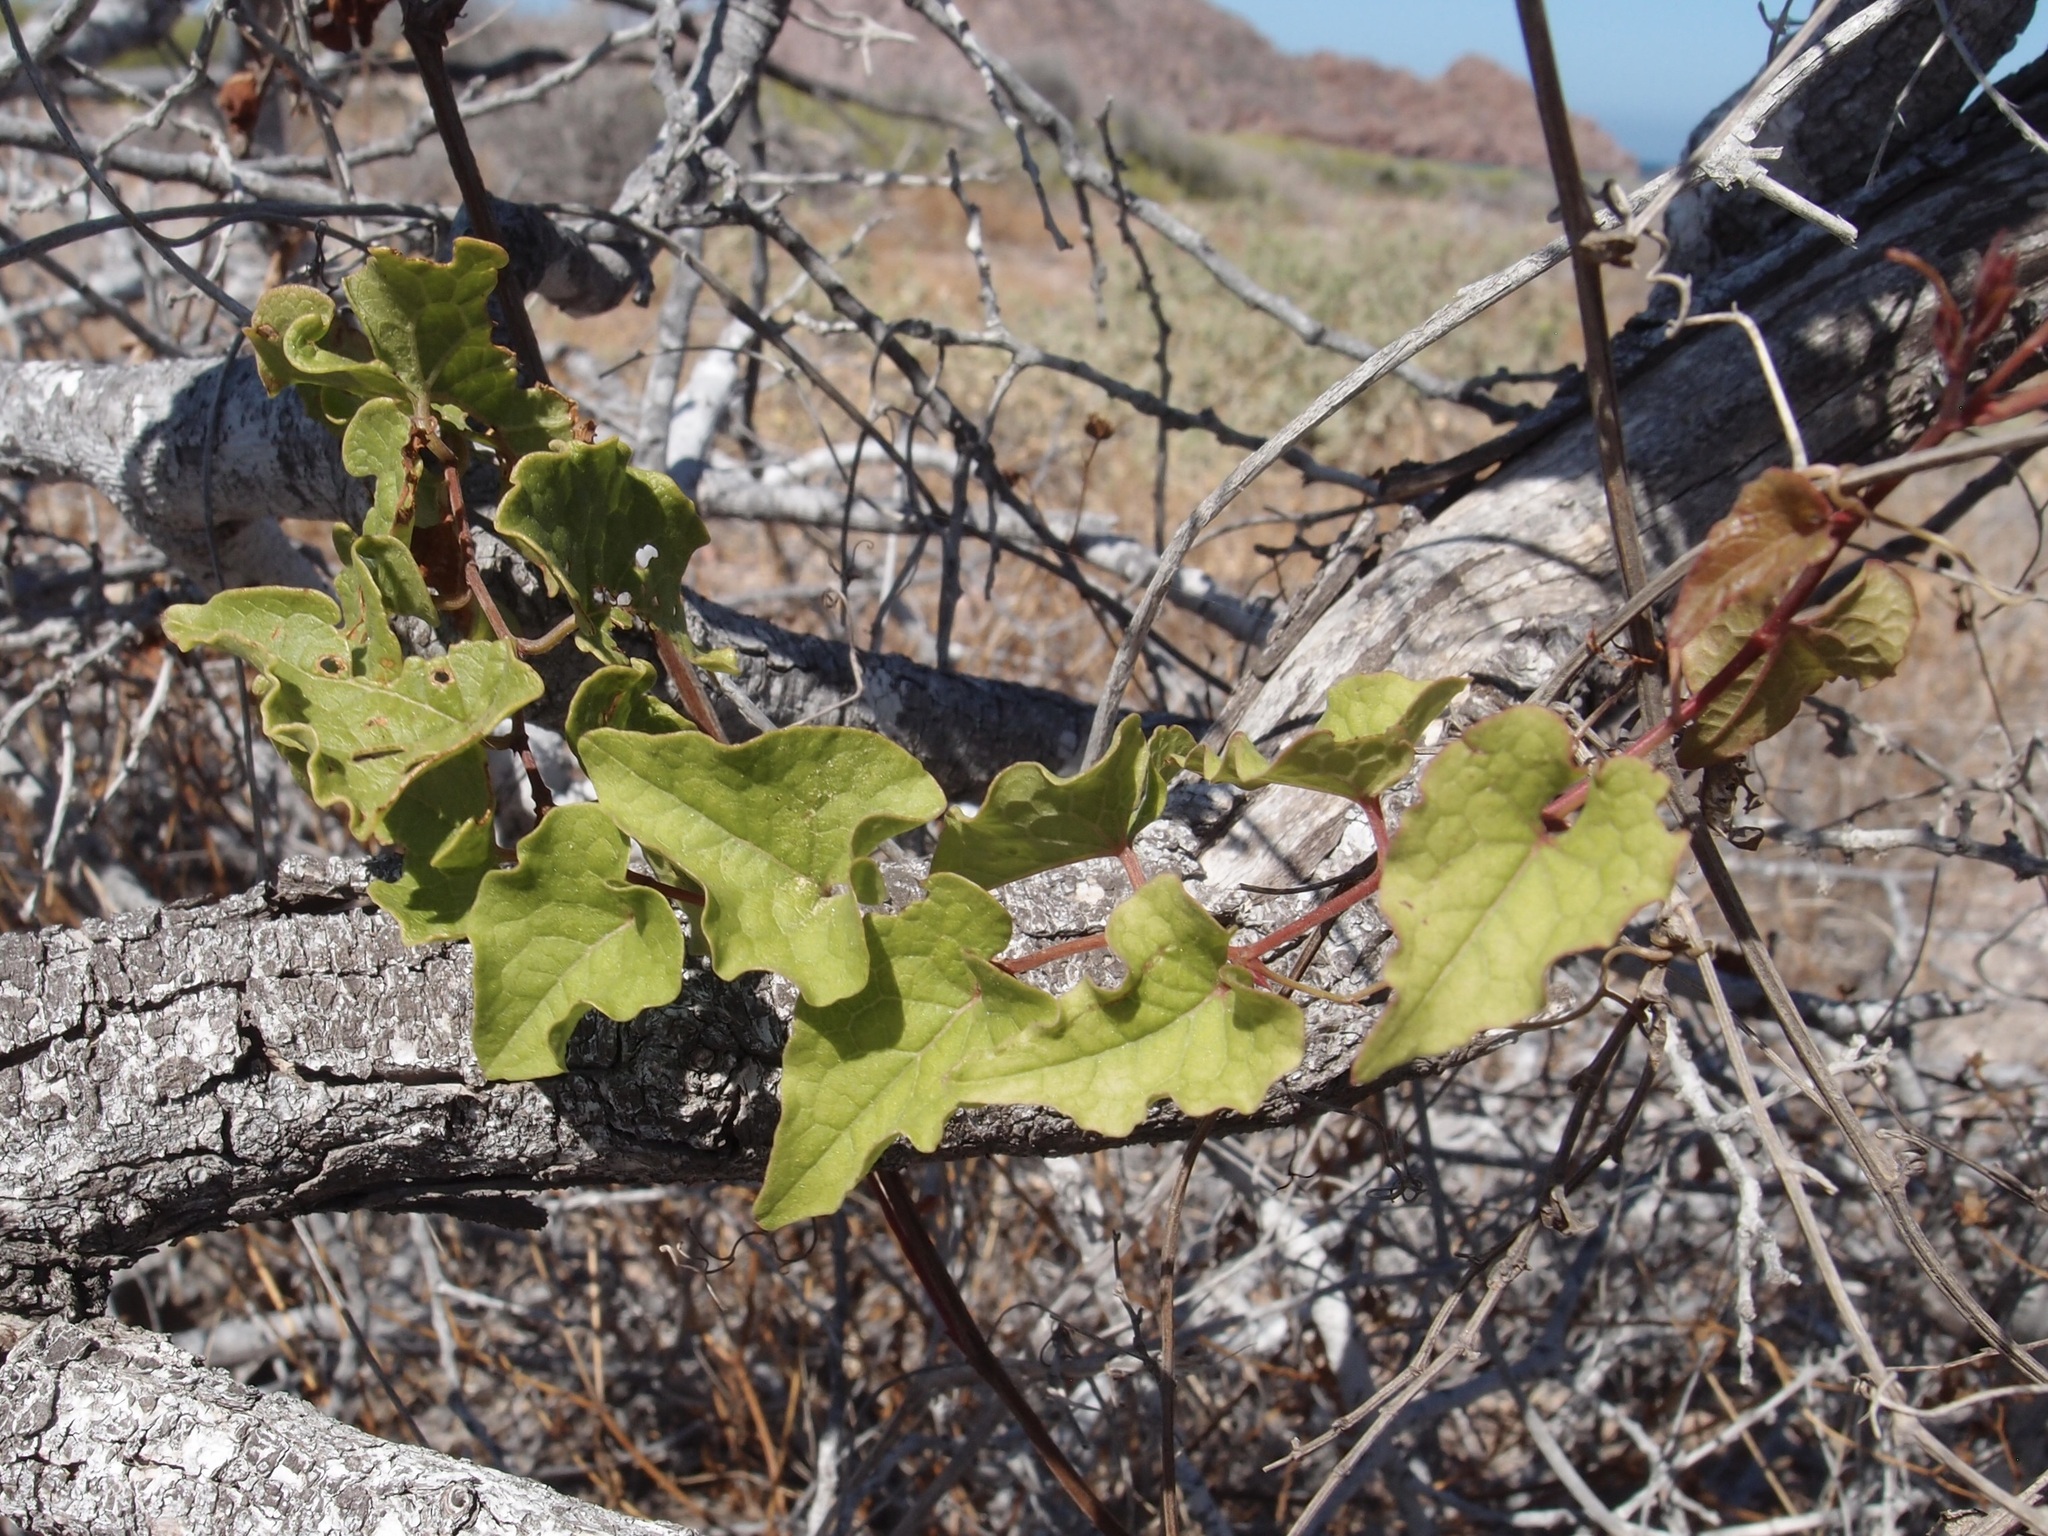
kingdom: Plantae
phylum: Tracheophyta
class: Magnoliopsida
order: Caryophyllales
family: Polygonaceae
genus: Antigonon
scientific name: Antigonon leptopus
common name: Coral vine
